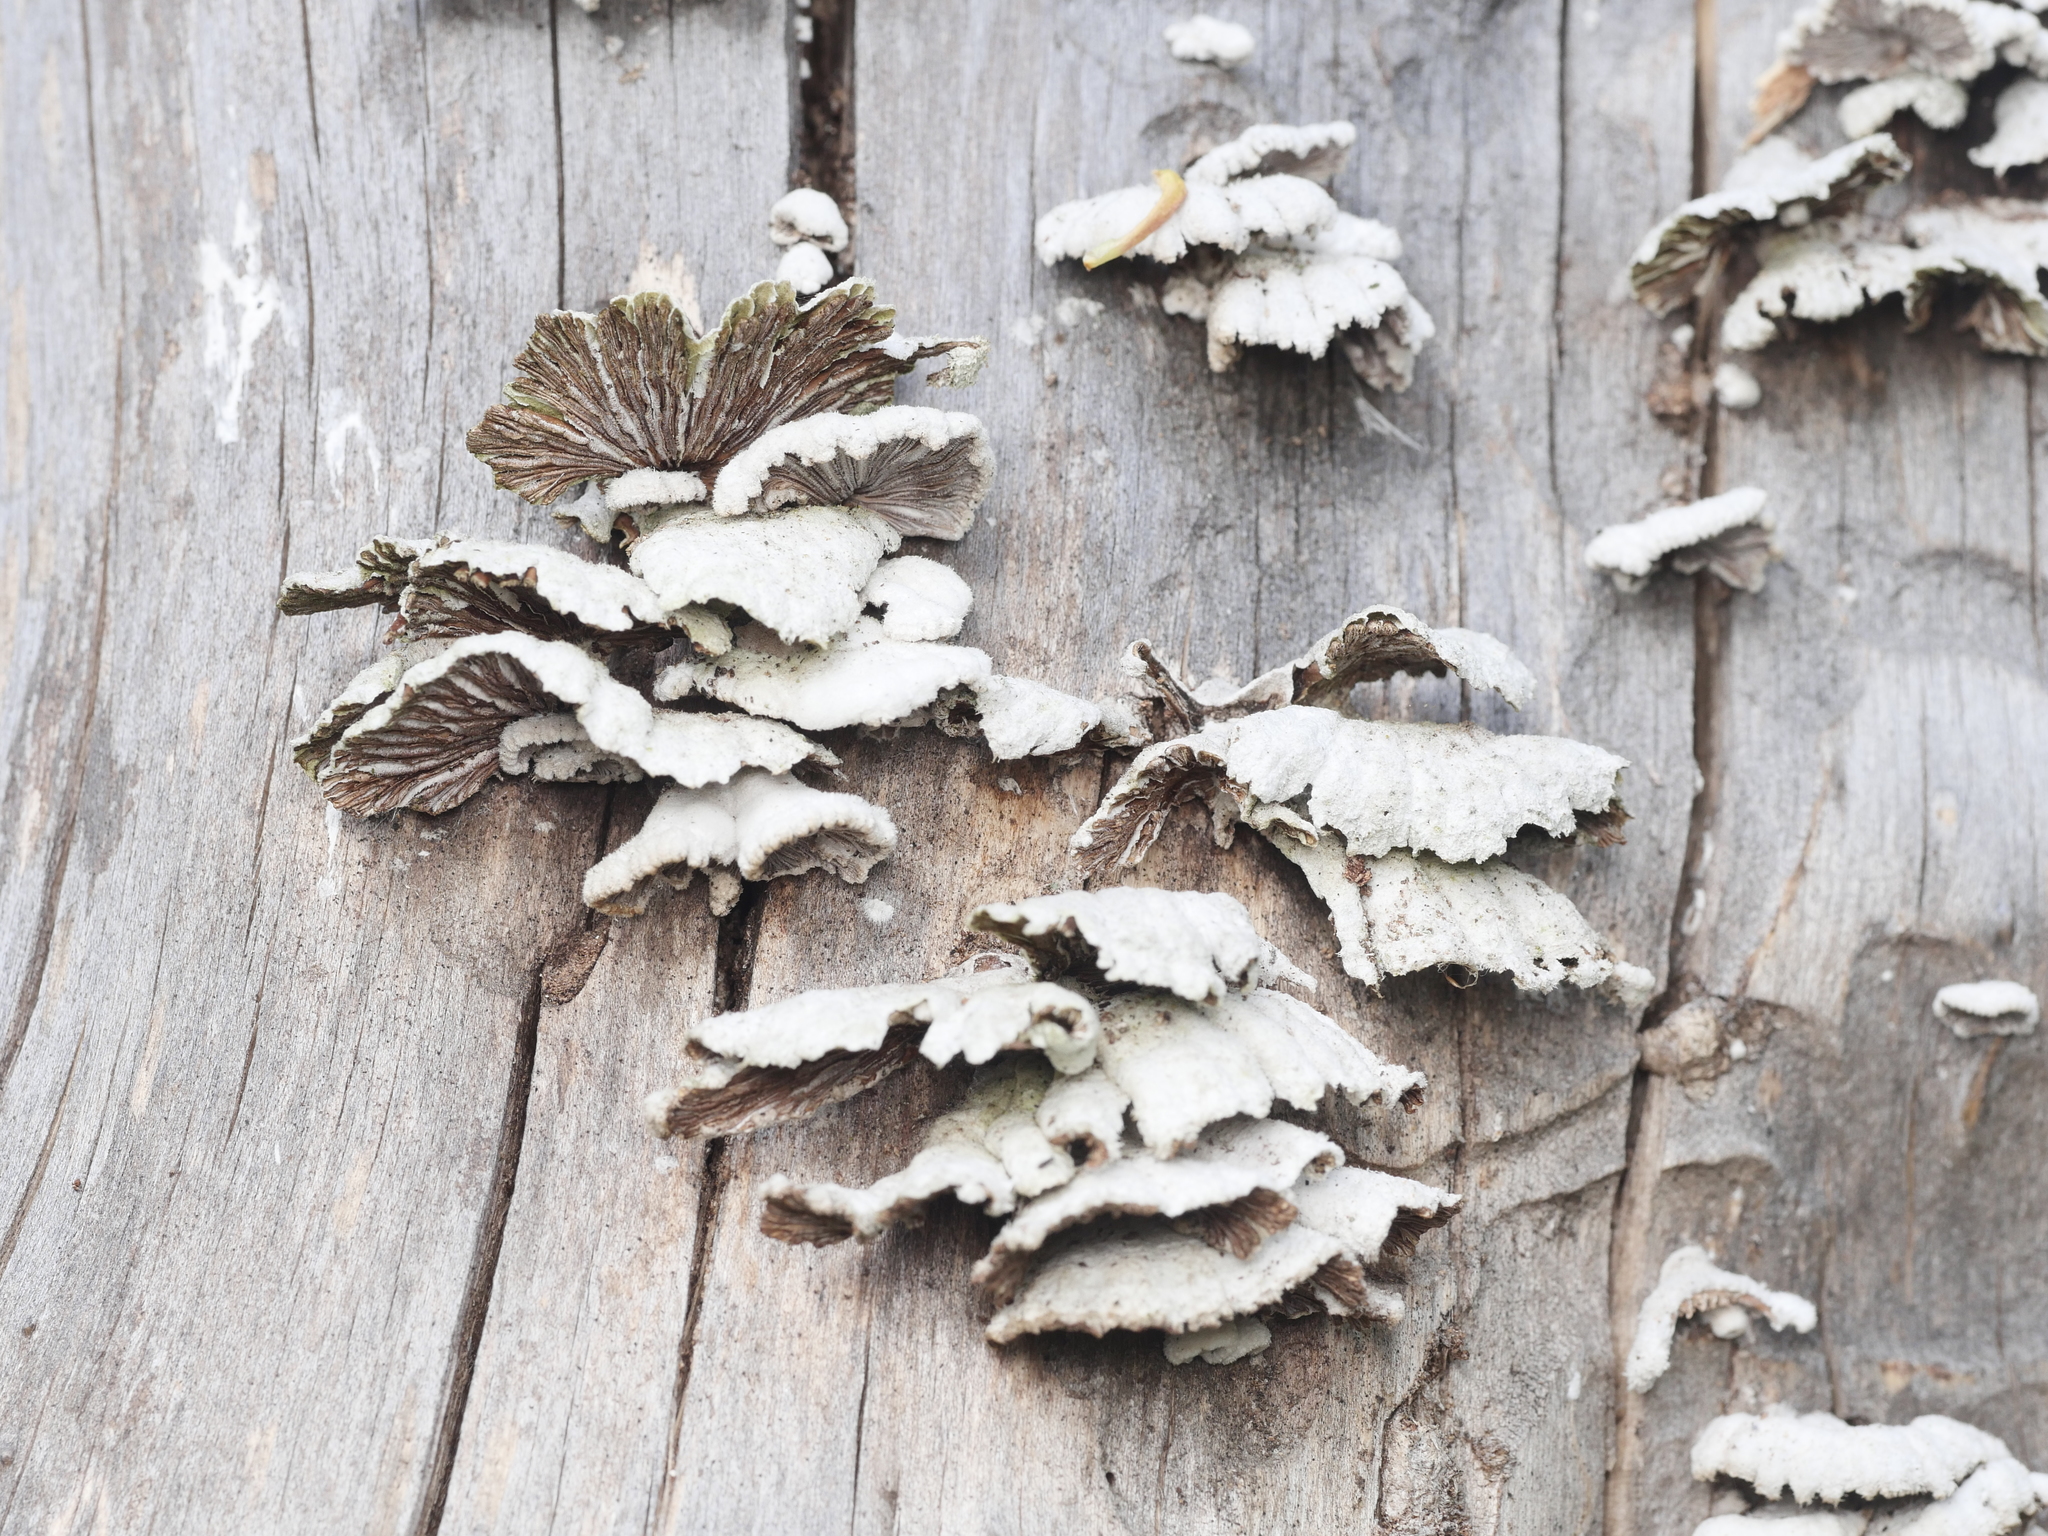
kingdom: Fungi
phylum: Basidiomycota
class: Agaricomycetes
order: Agaricales
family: Schizophyllaceae
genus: Schizophyllum
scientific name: Schizophyllum commune
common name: Common porecrust
